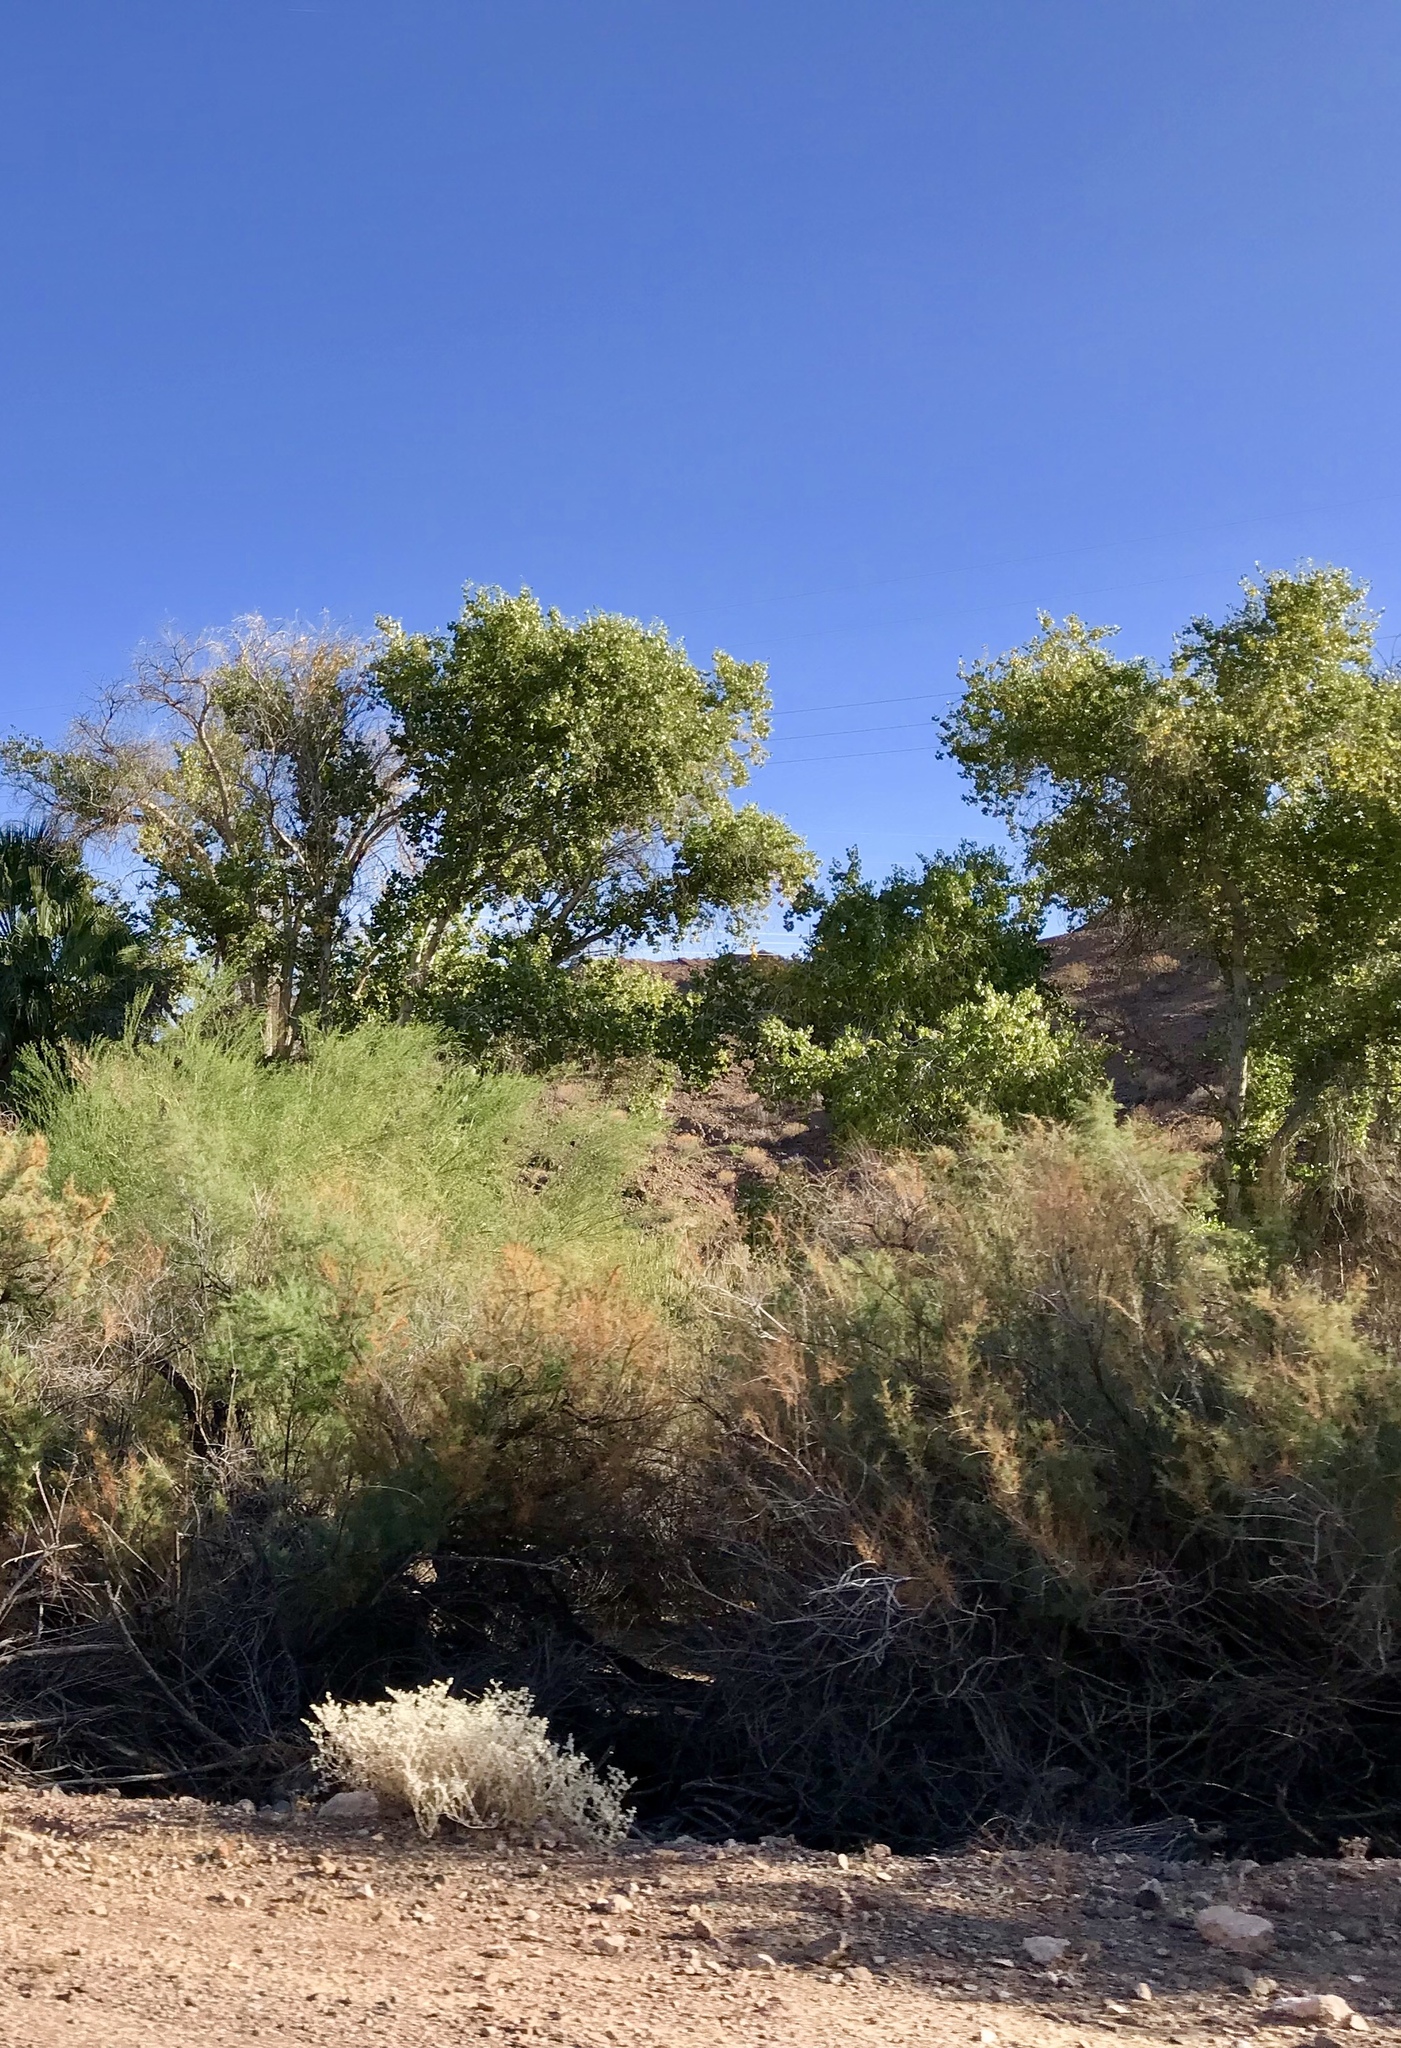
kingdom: Plantae
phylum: Tracheophyta
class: Magnoliopsida
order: Malpighiales
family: Salicaceae
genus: Populus
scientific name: Populus fremontii
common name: Fremont's cottonwood
